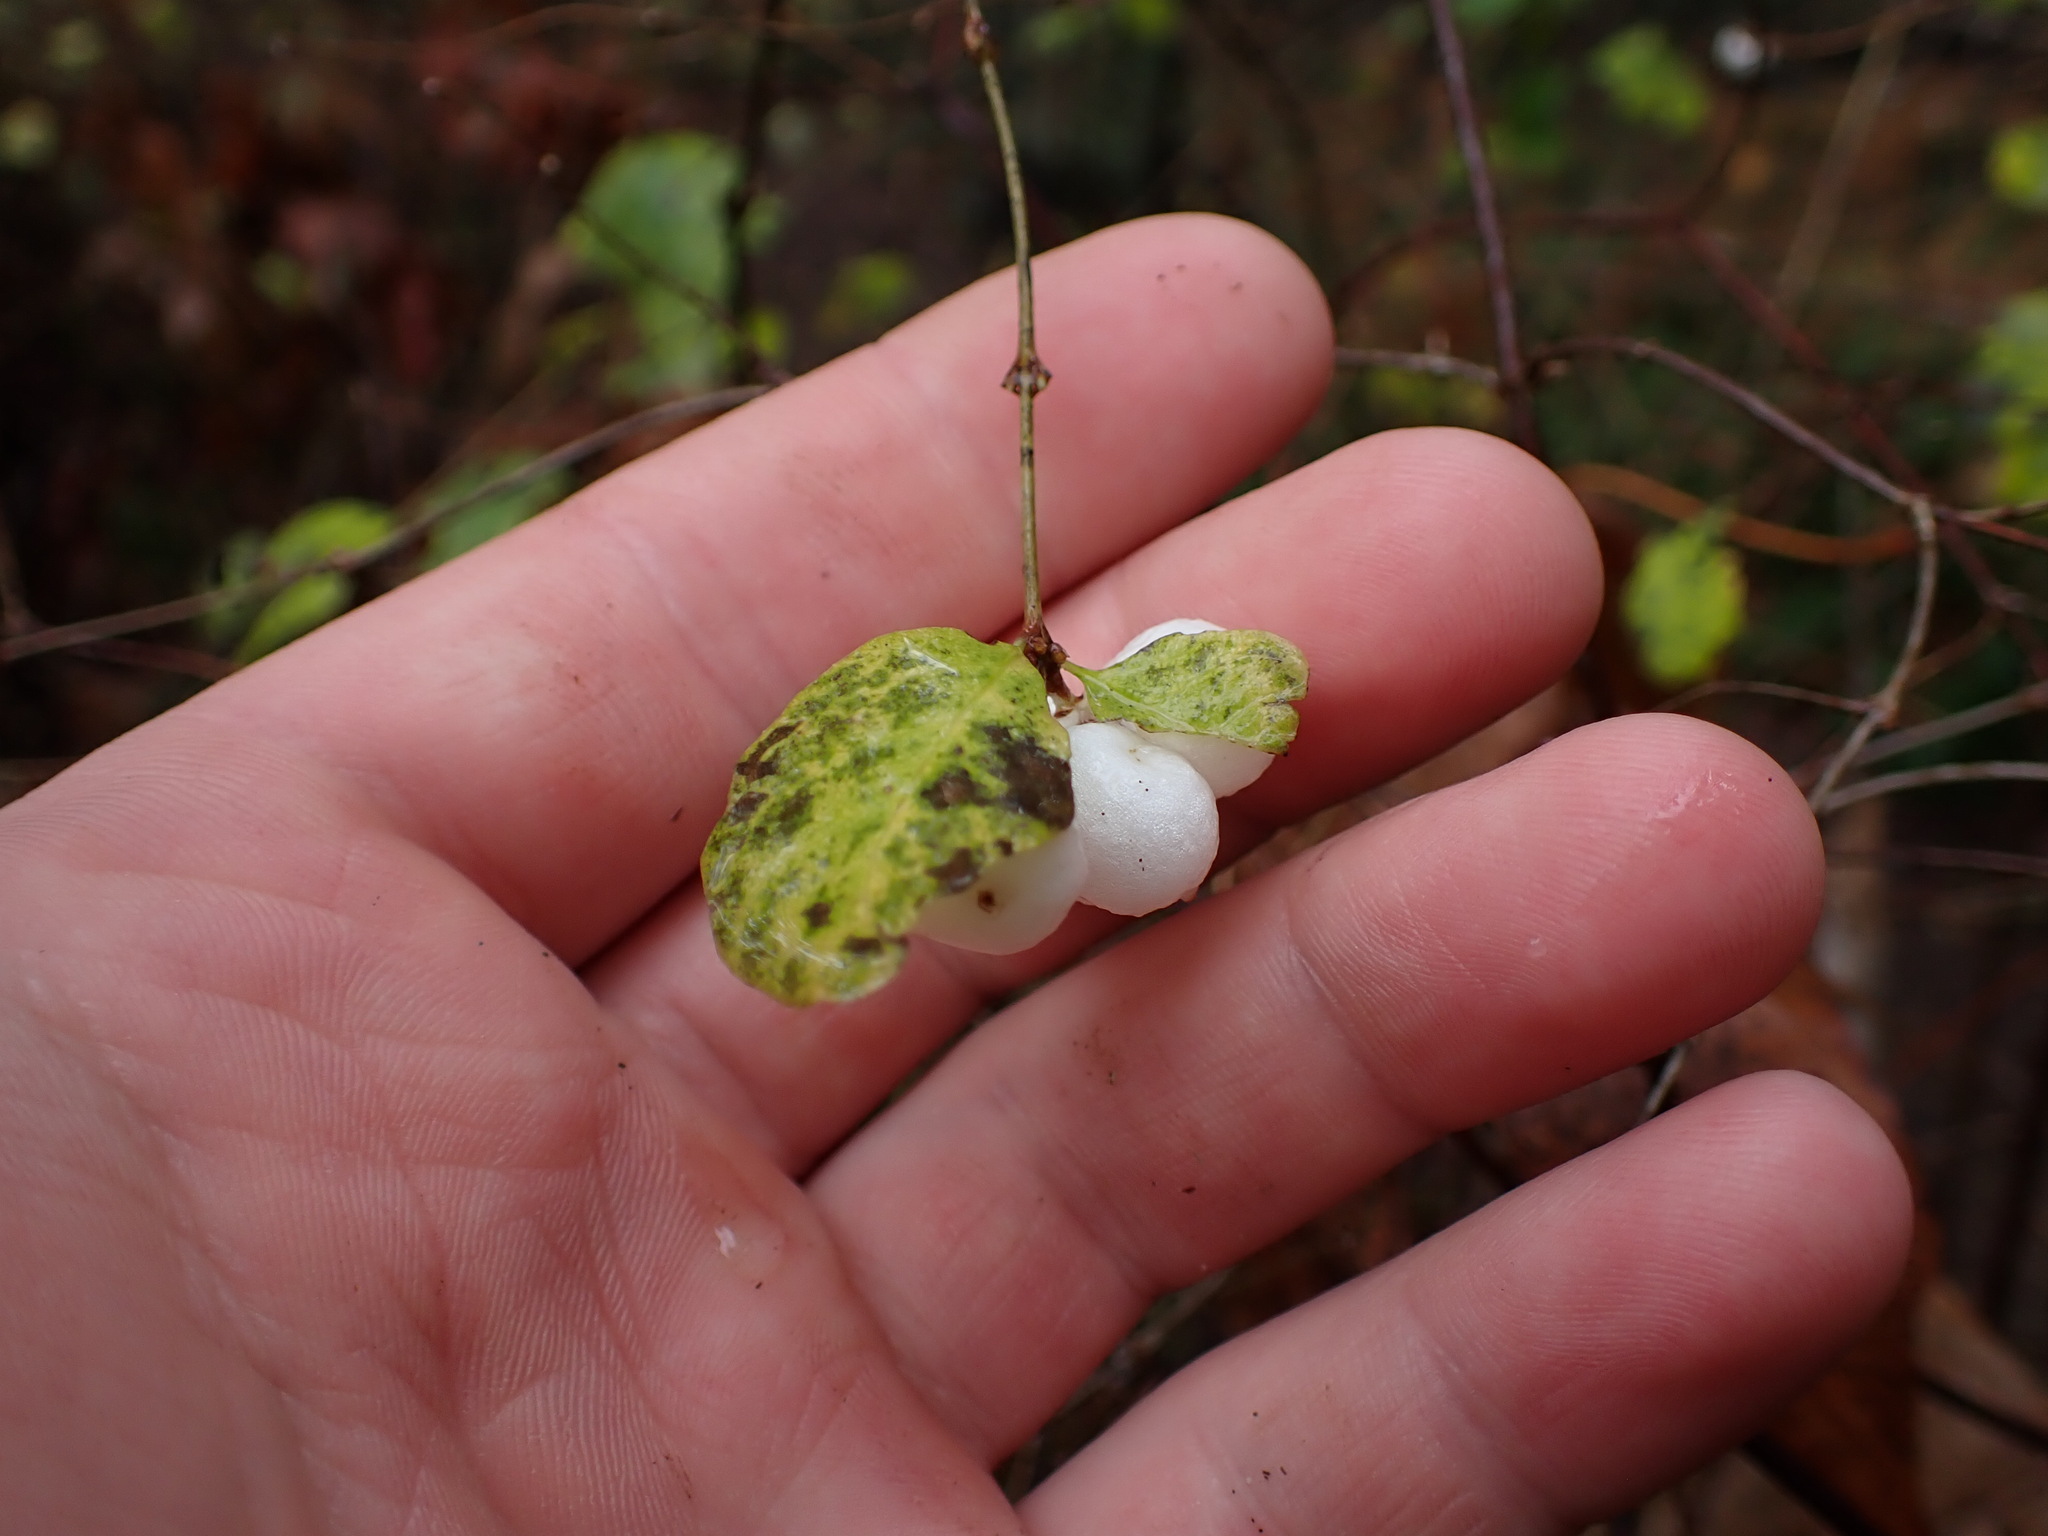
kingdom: Plantae
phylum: Tracheophyta
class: Magnoliopsida
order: Dipsacales
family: Caprifoliaceae
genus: Symphoricarpos
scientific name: Symphoricarpos albus
